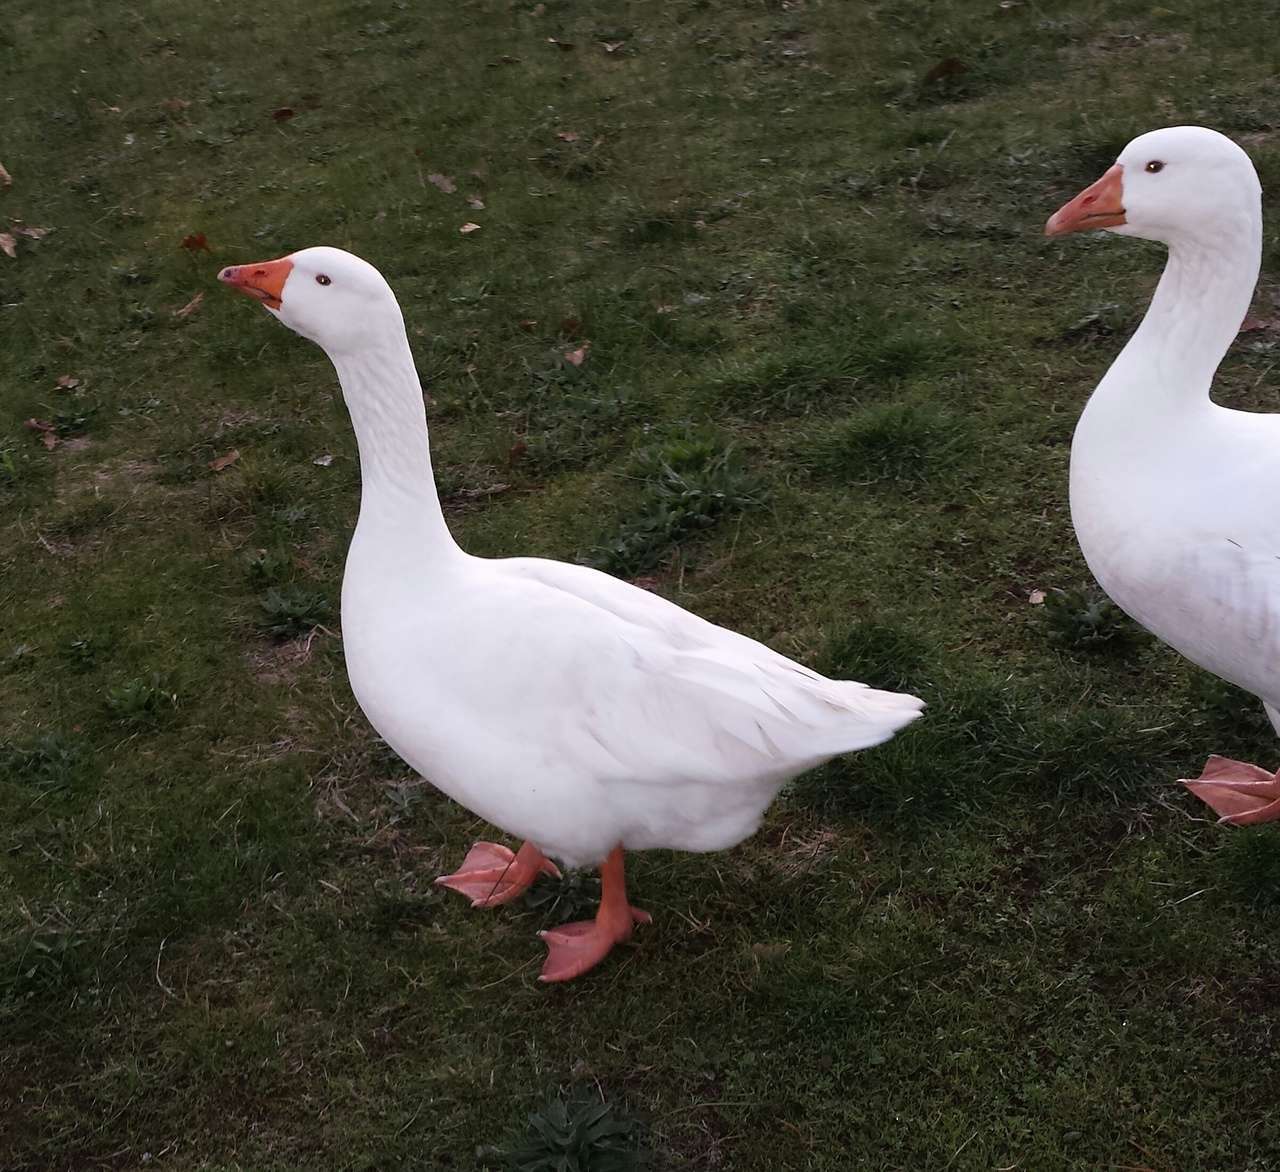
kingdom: Animalia
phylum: Chordata
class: Aves
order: Anseriformes
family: Anatidae
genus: Anser
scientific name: Anser anser
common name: Greylag goose
